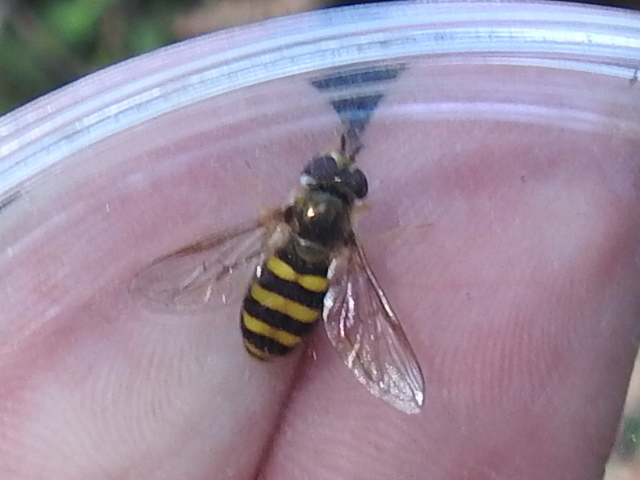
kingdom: Animalia
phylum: Arthropoda
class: Insecta
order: Diptera
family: Syrphidae
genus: Eupeodes
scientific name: Eupeodes
